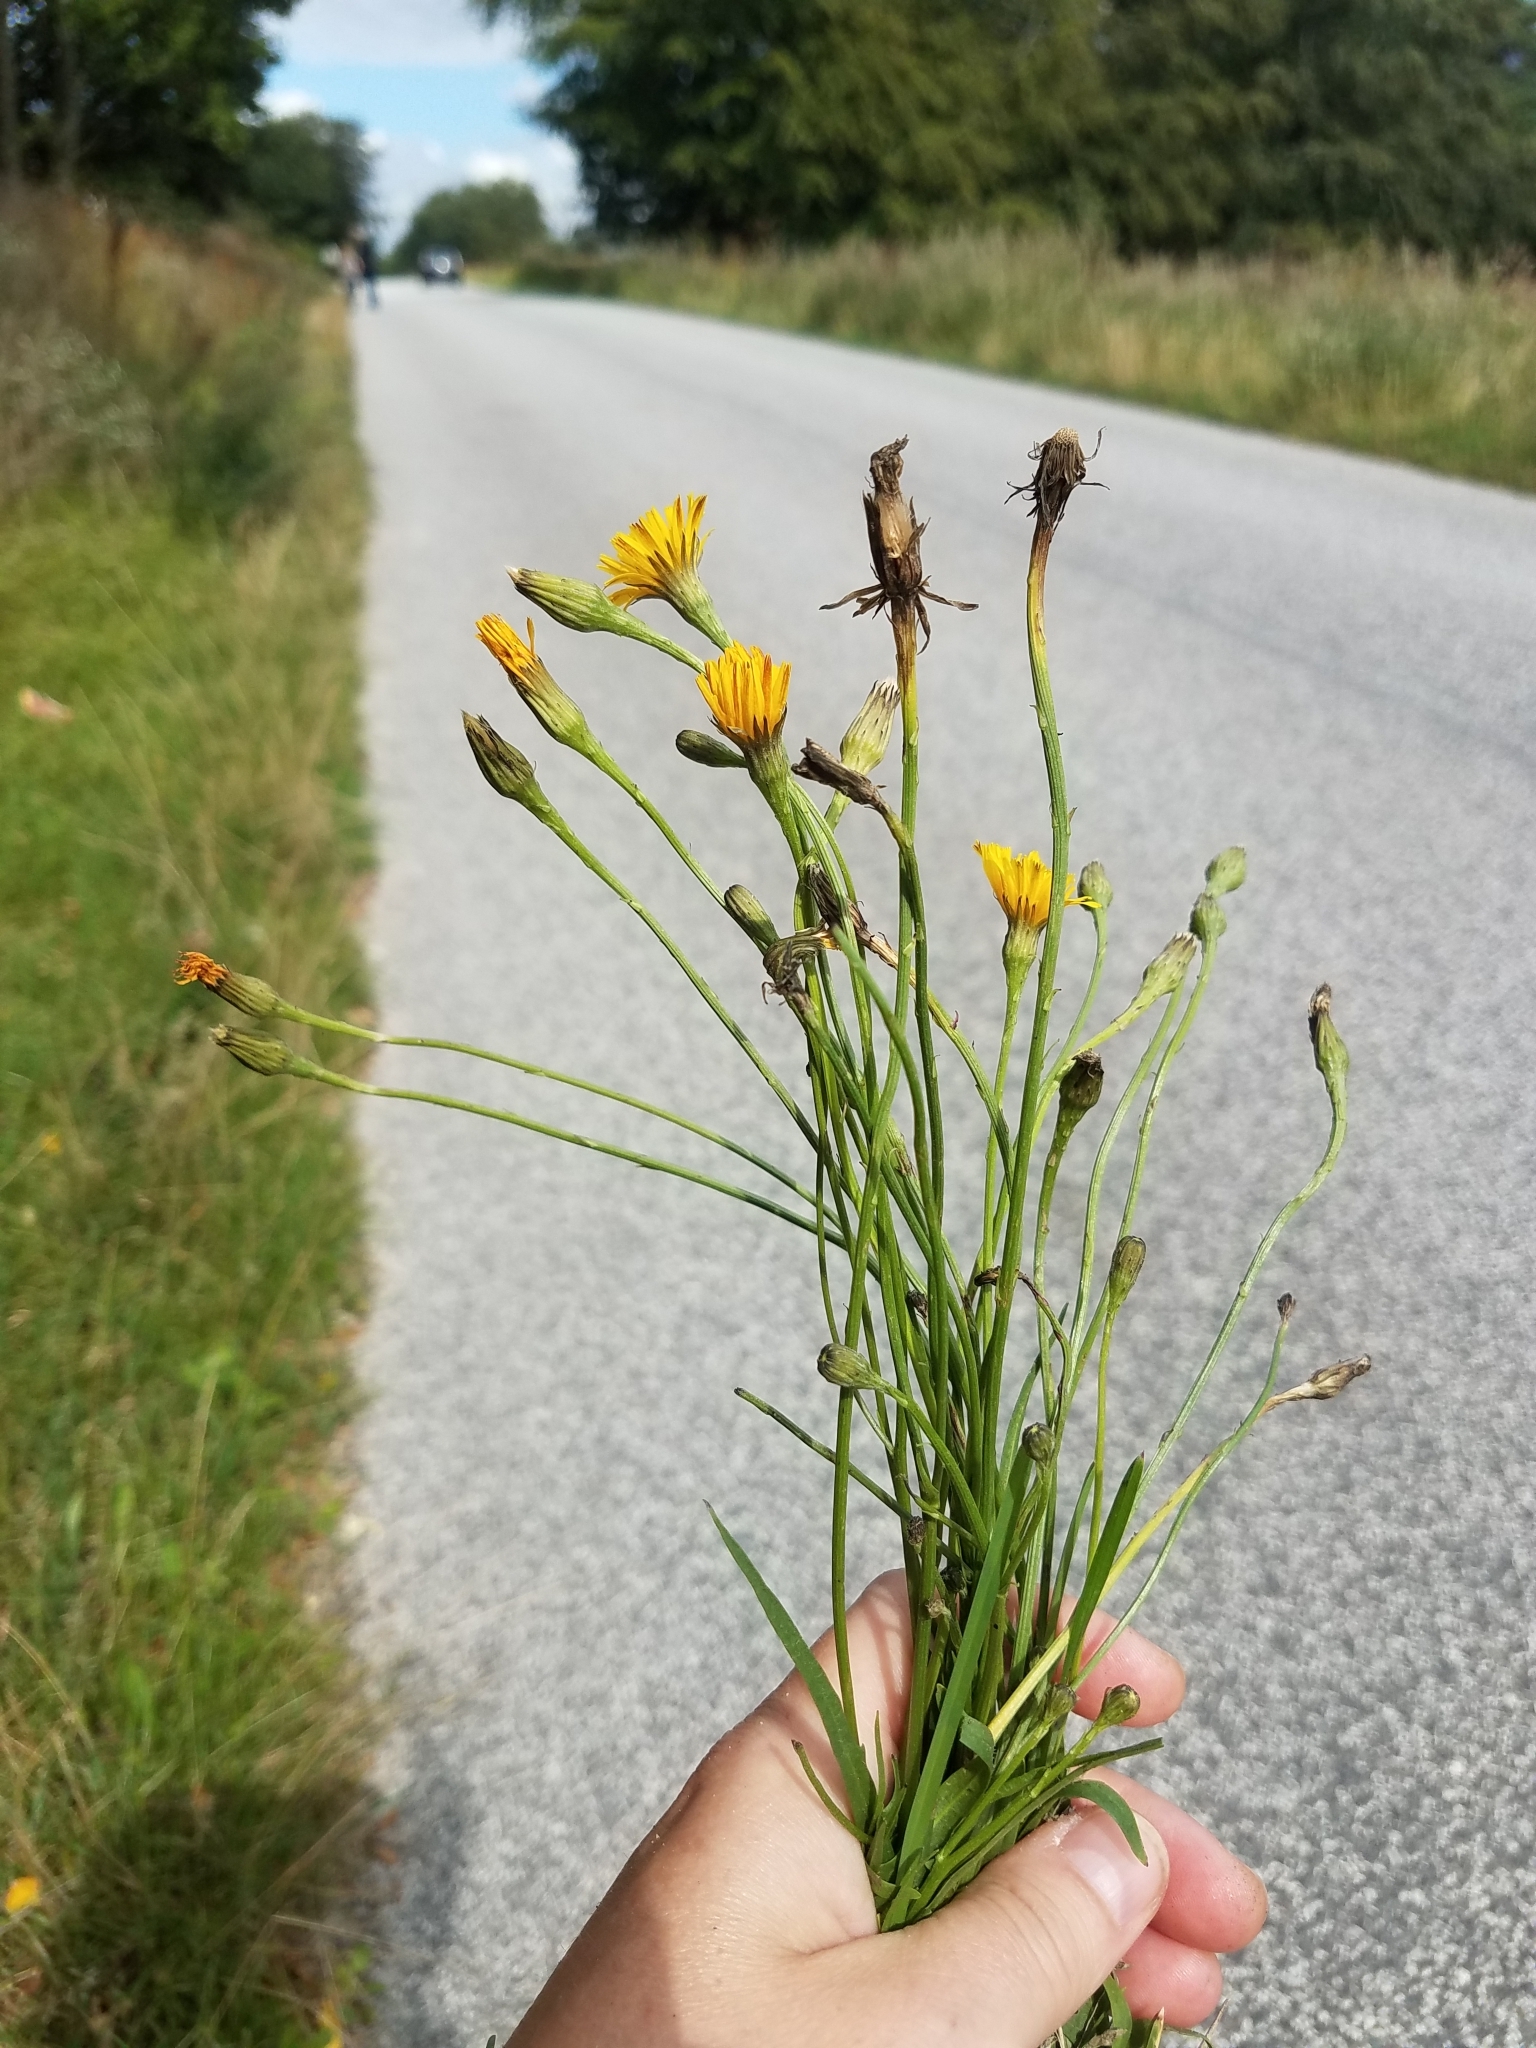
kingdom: Plantae
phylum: Tracheophyta
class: Magnoliopsida
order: Asterales
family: Asteraceae
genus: Scorzoneroides
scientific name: Scorzoneroides autumnalis
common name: Autumn hawkbit
